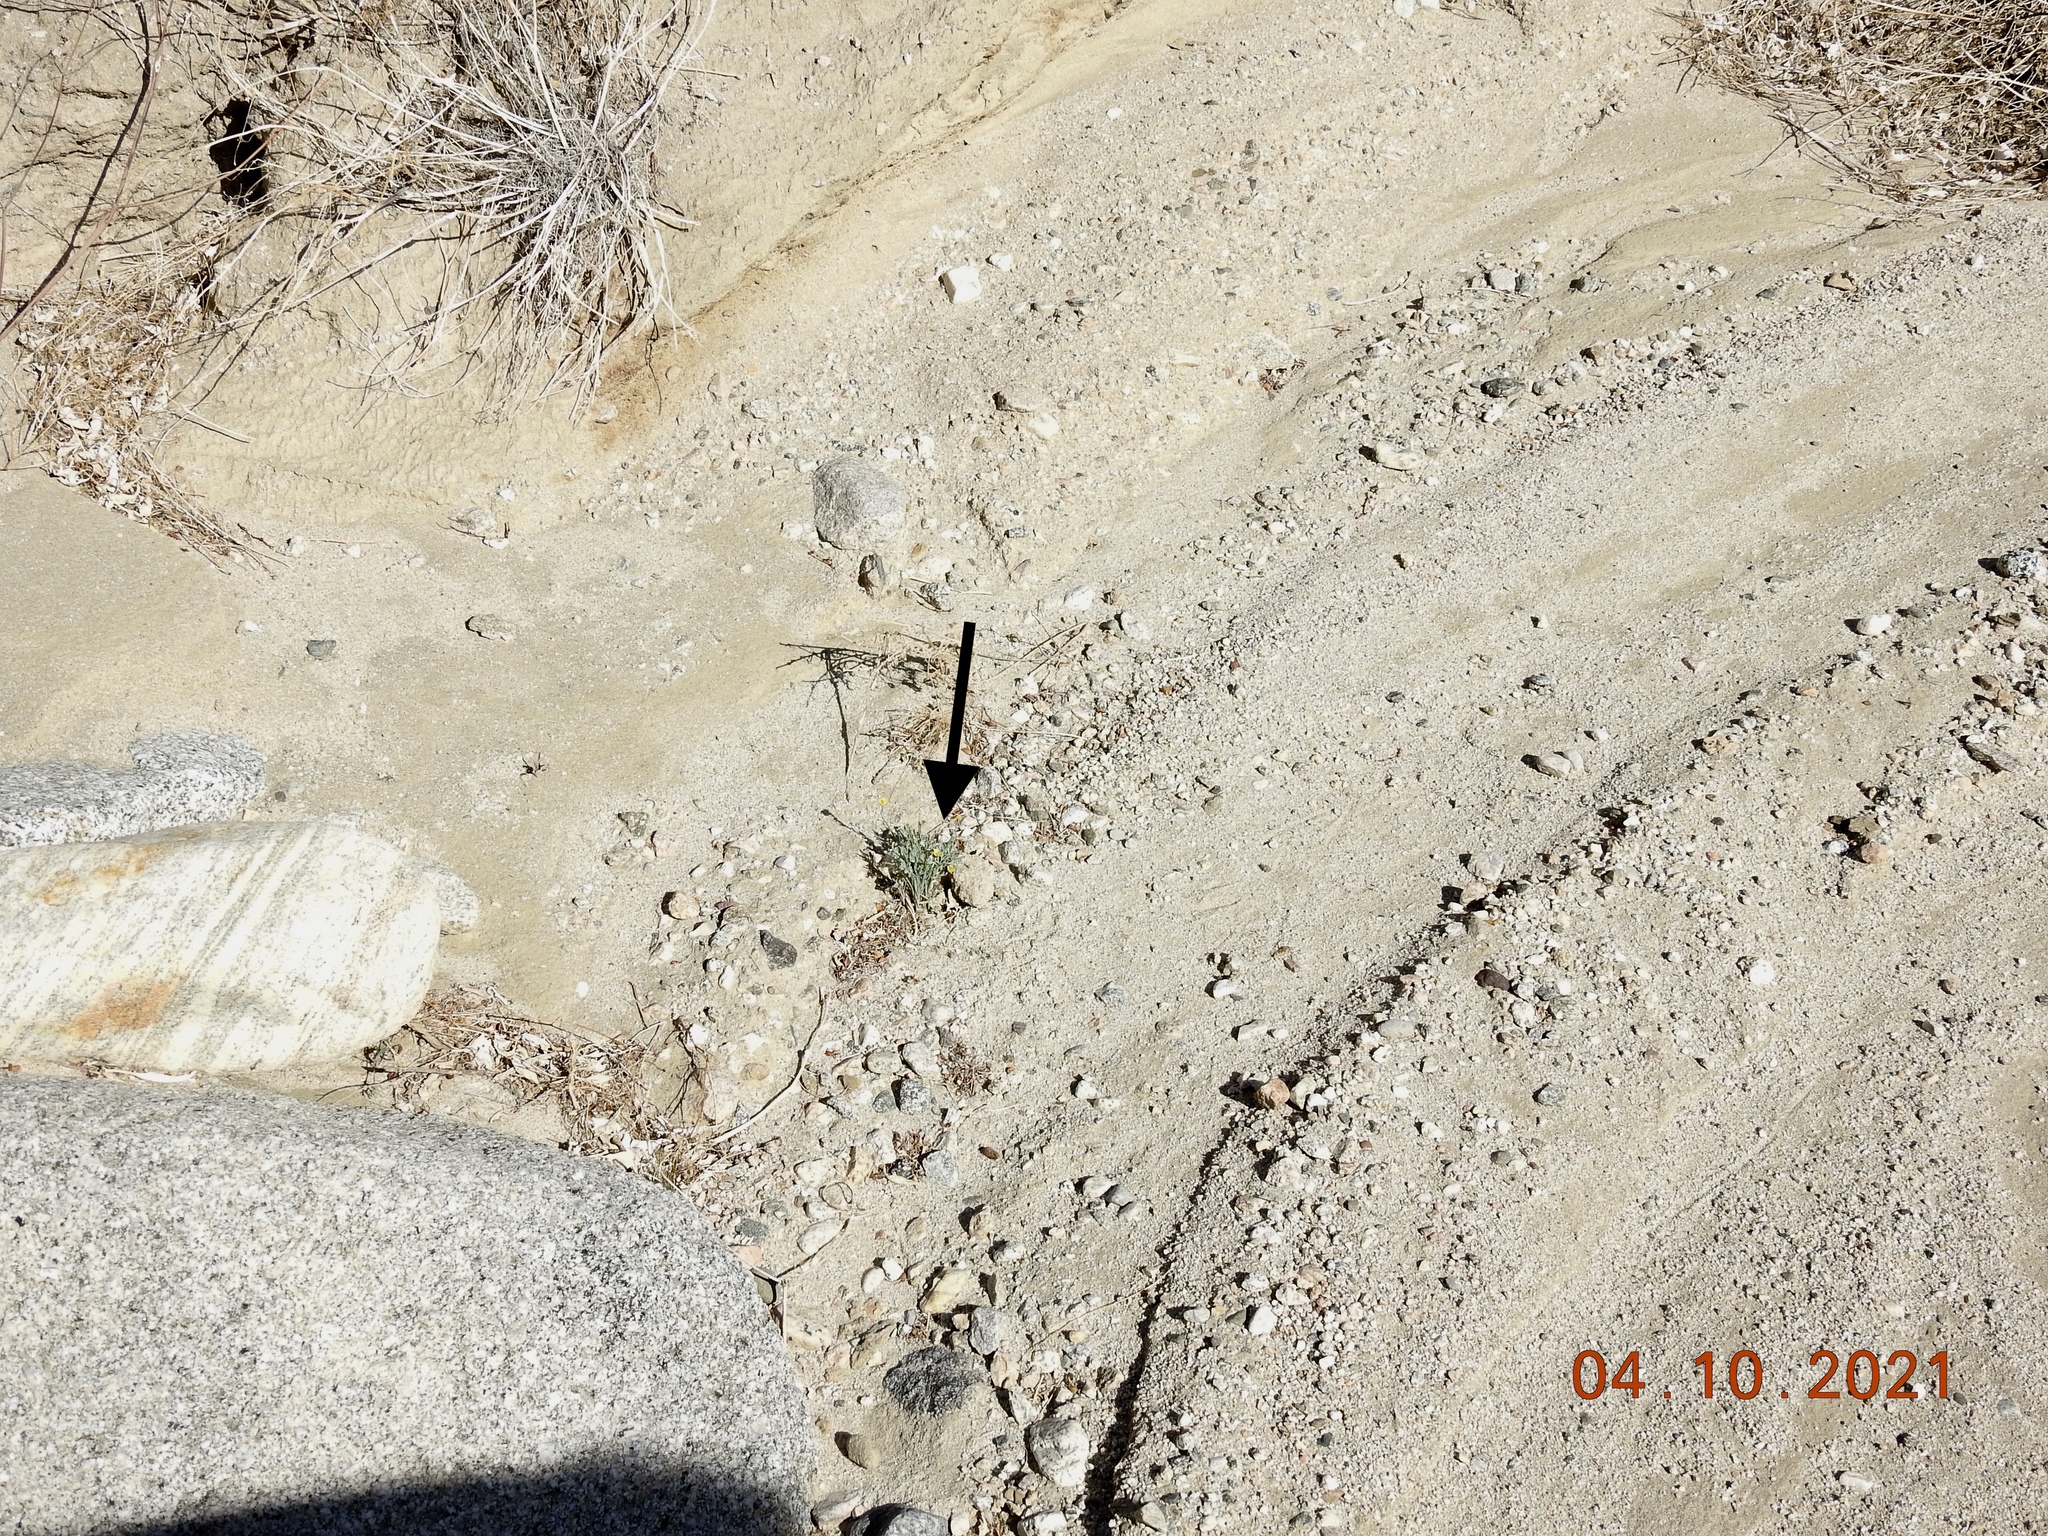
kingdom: Plantae
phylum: Tracheophyta
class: Magnoliopsida
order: Ranunculales
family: Papaveraceae
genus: Eschscholzia
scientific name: Eschscholzia minutiflora
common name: Small-flower california-poppy
